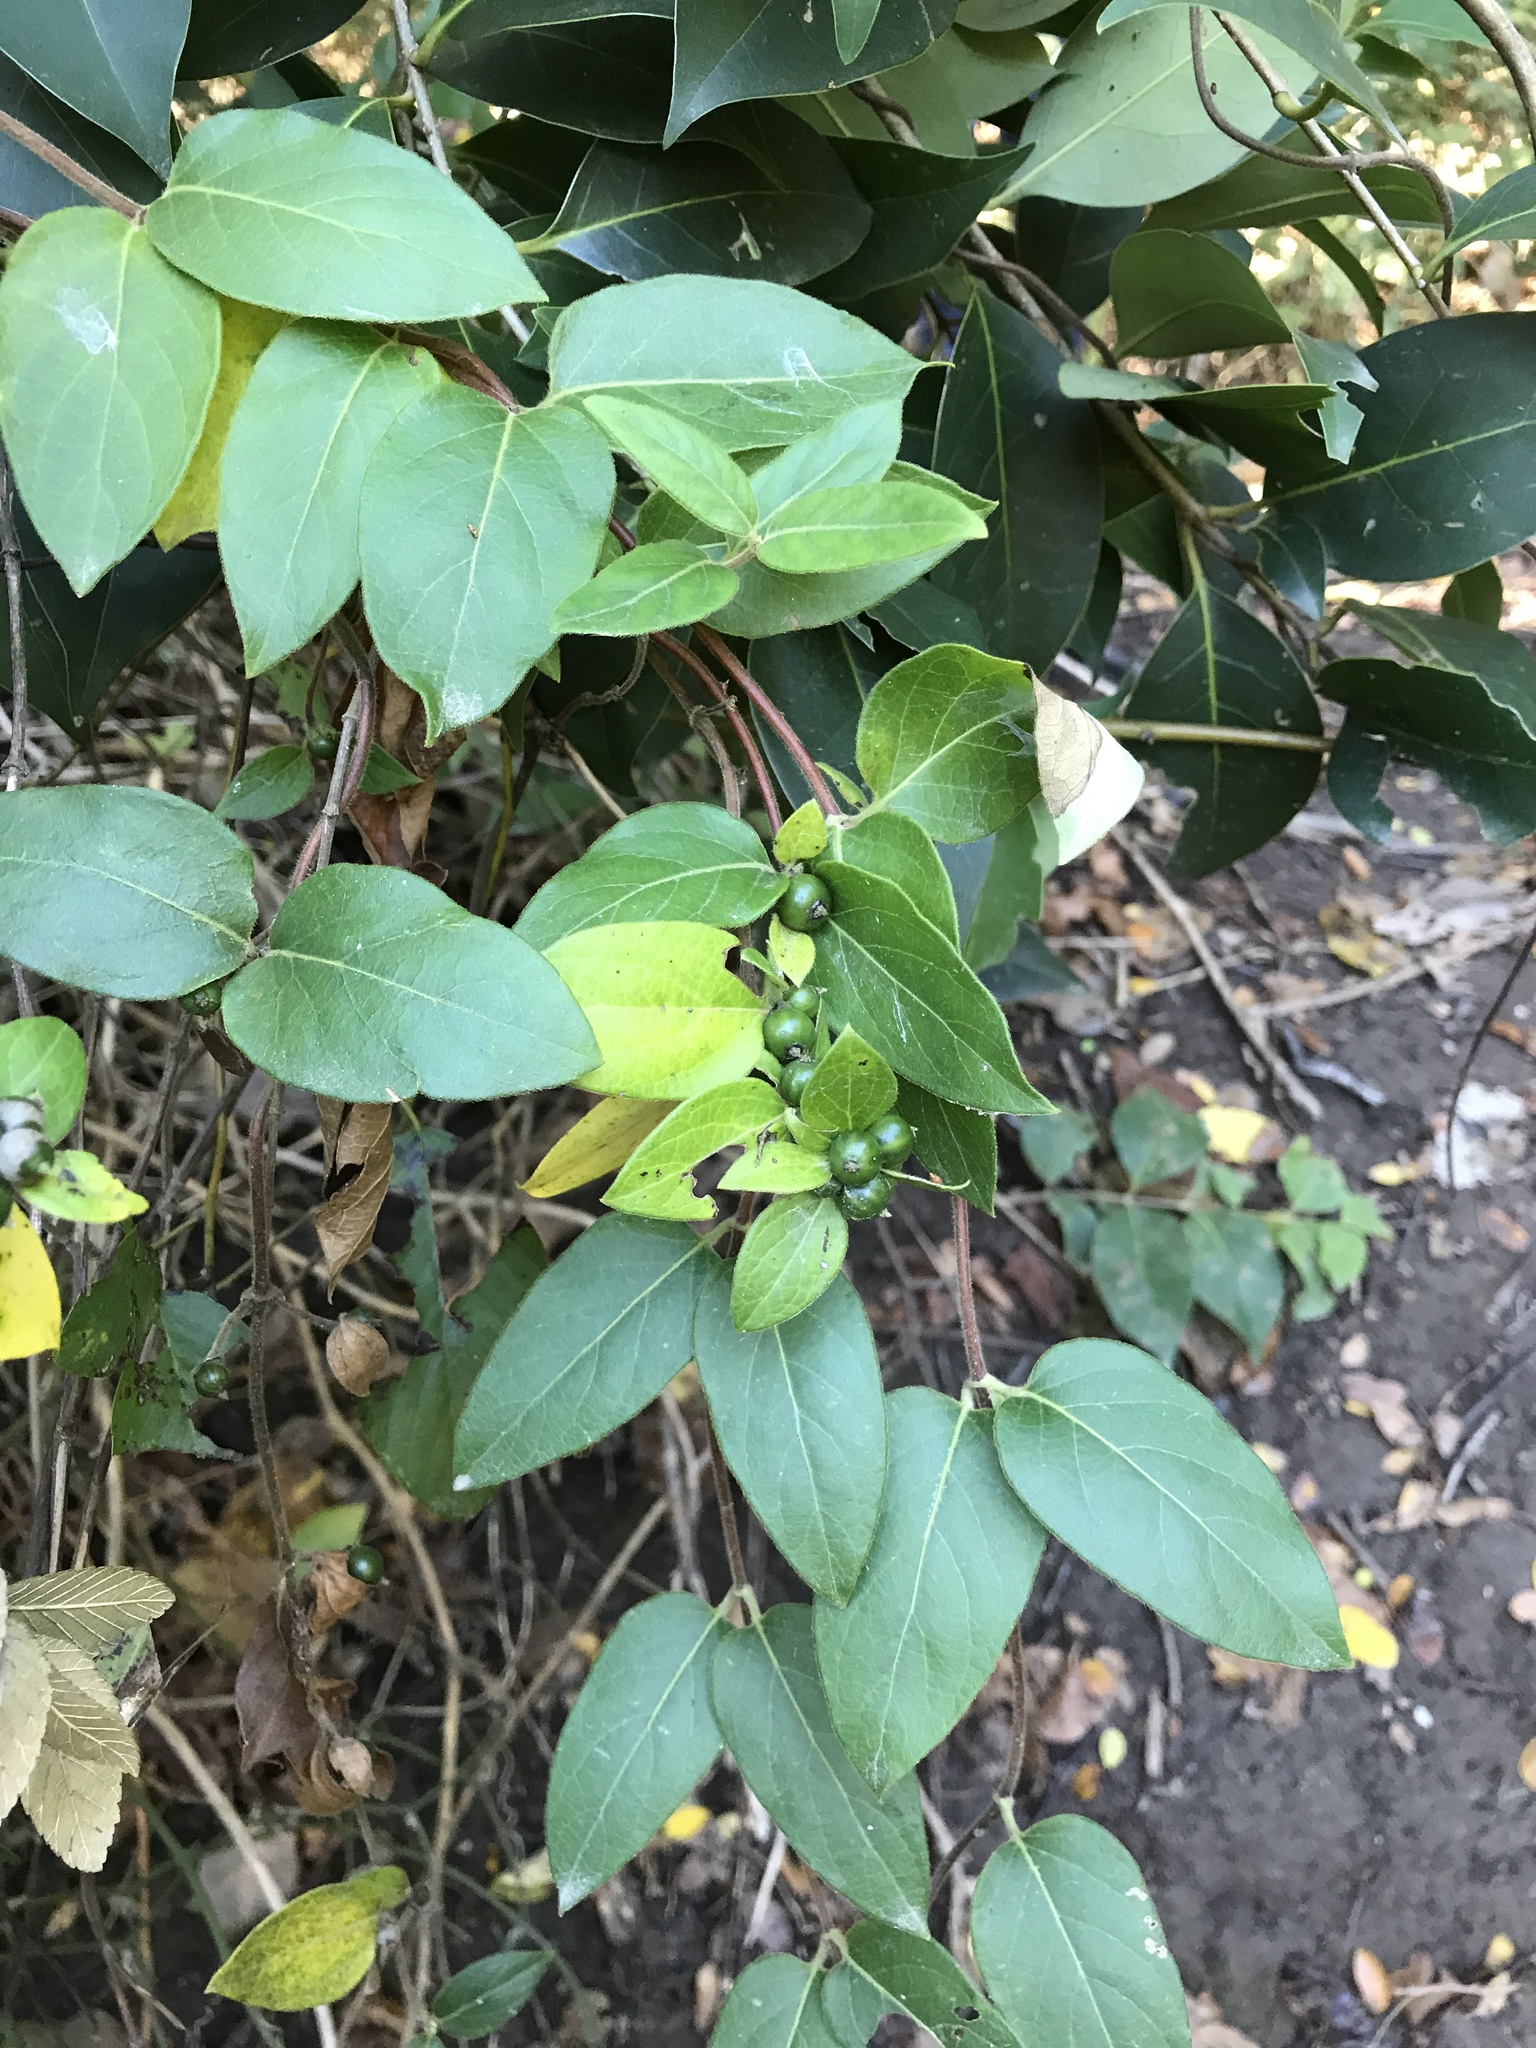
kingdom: Plantae
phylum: Tracheophyta
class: Magnoliopsida
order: Dipsacales
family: Caprifoliaceae
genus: Lonicera
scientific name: Lonicera japonica
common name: Japanese honeysuckle
